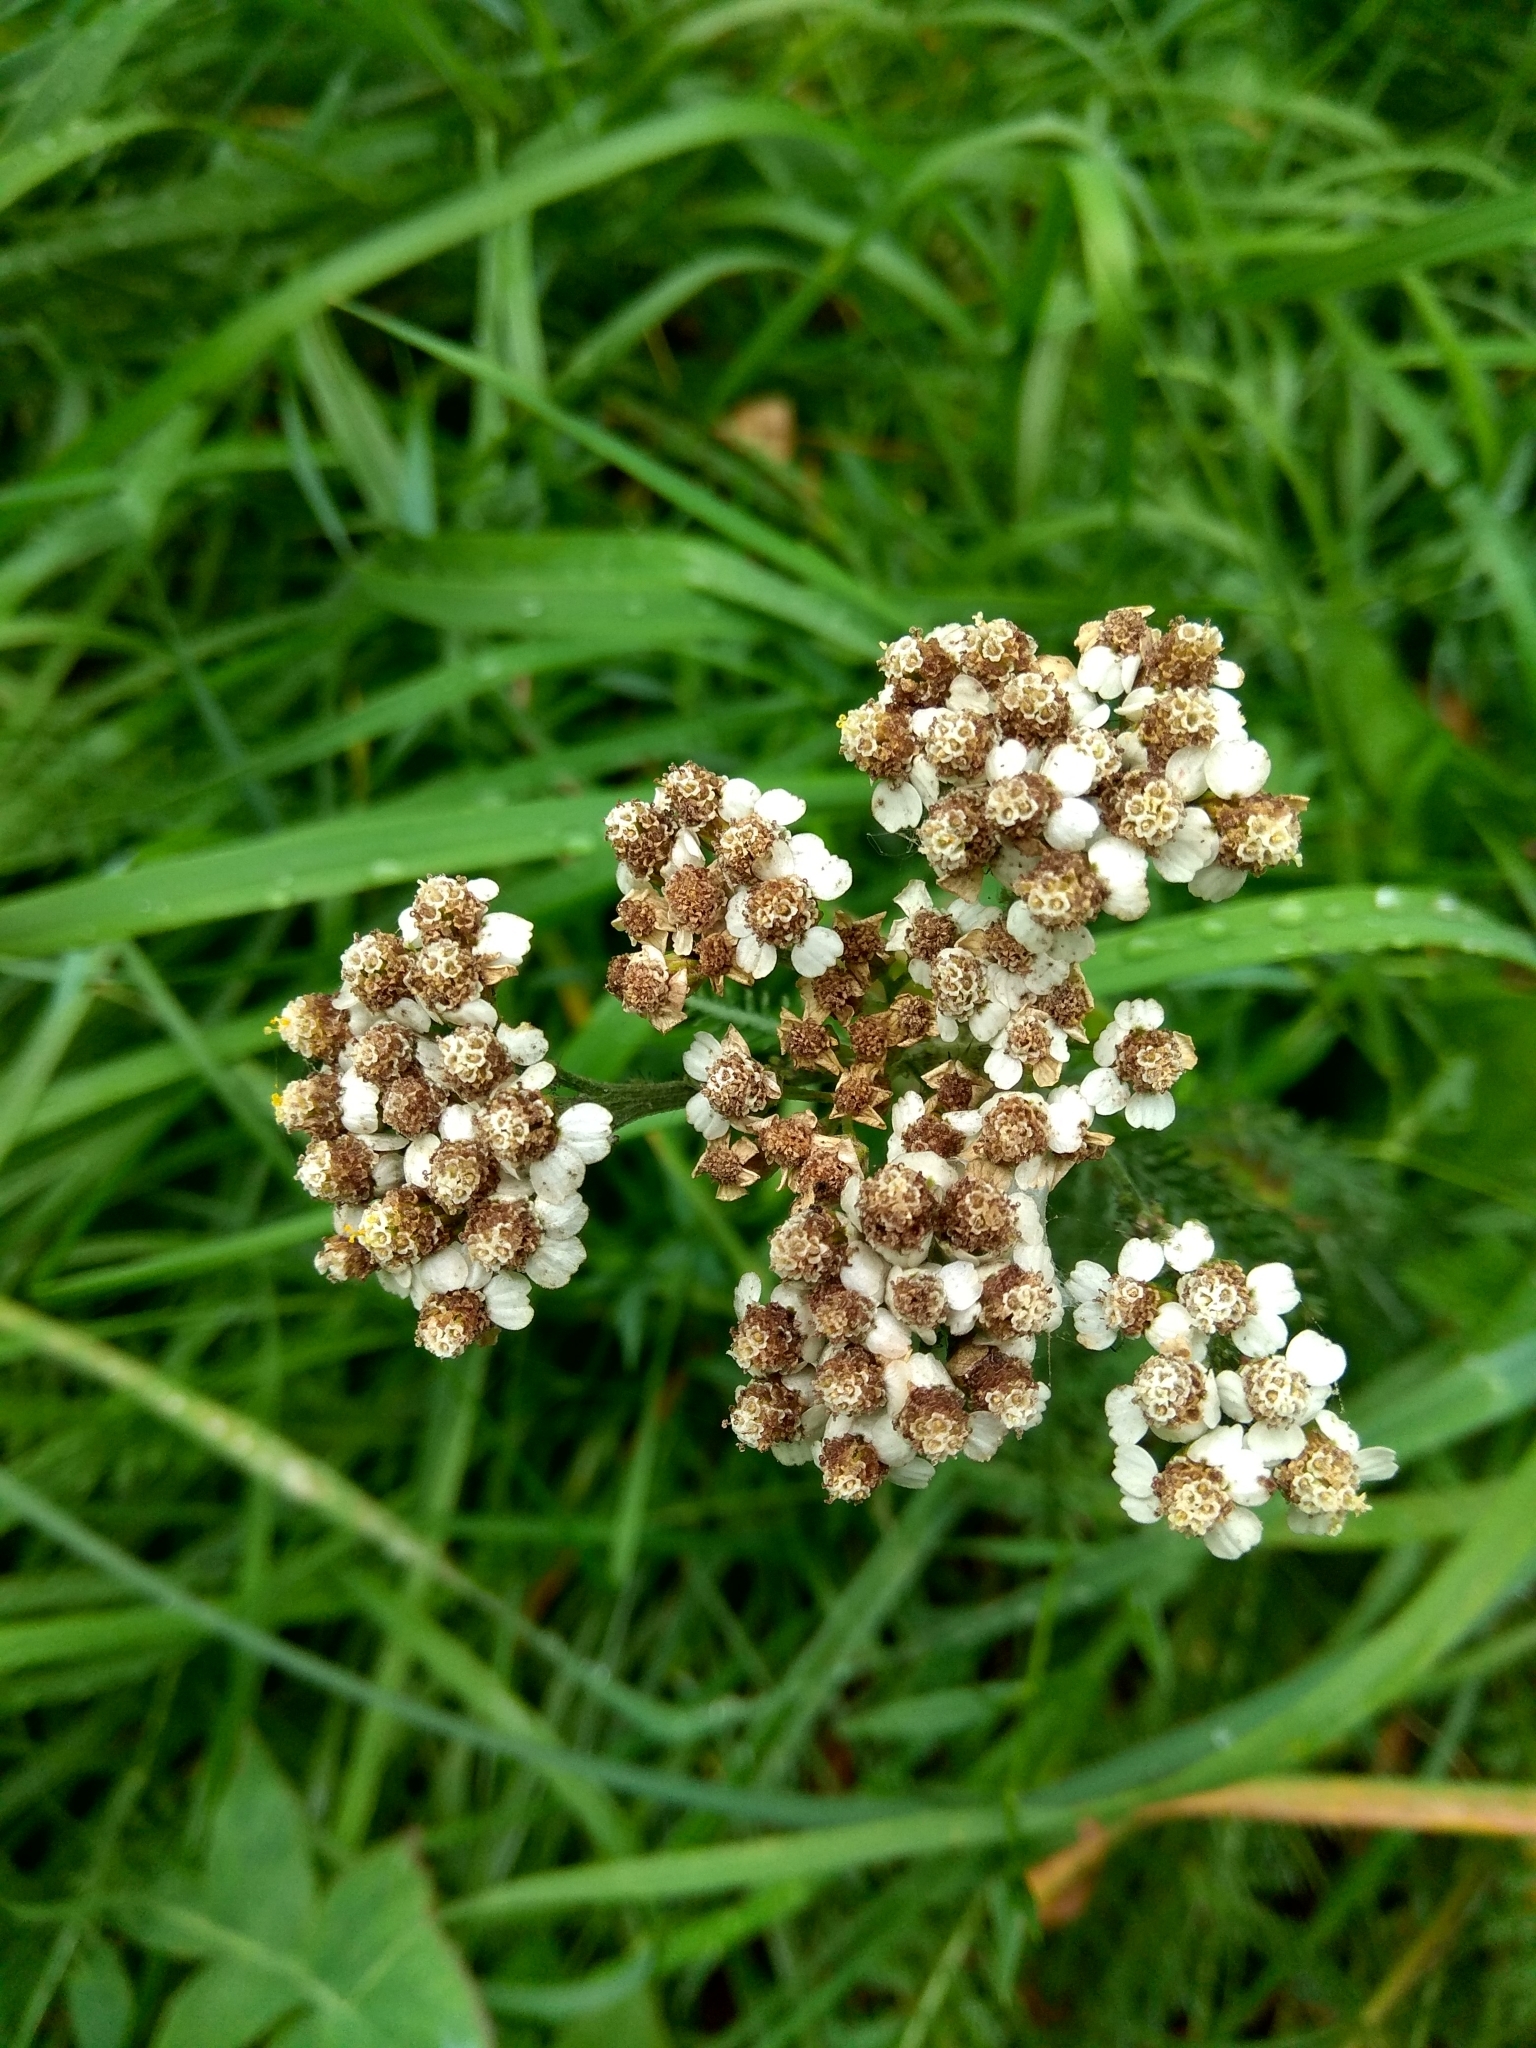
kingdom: Plantae
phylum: Tracheophyta
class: Magnoliopsida
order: Asterales
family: Asteraceae
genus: Achillea
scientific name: Achillea millefolium
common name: Yarrow
